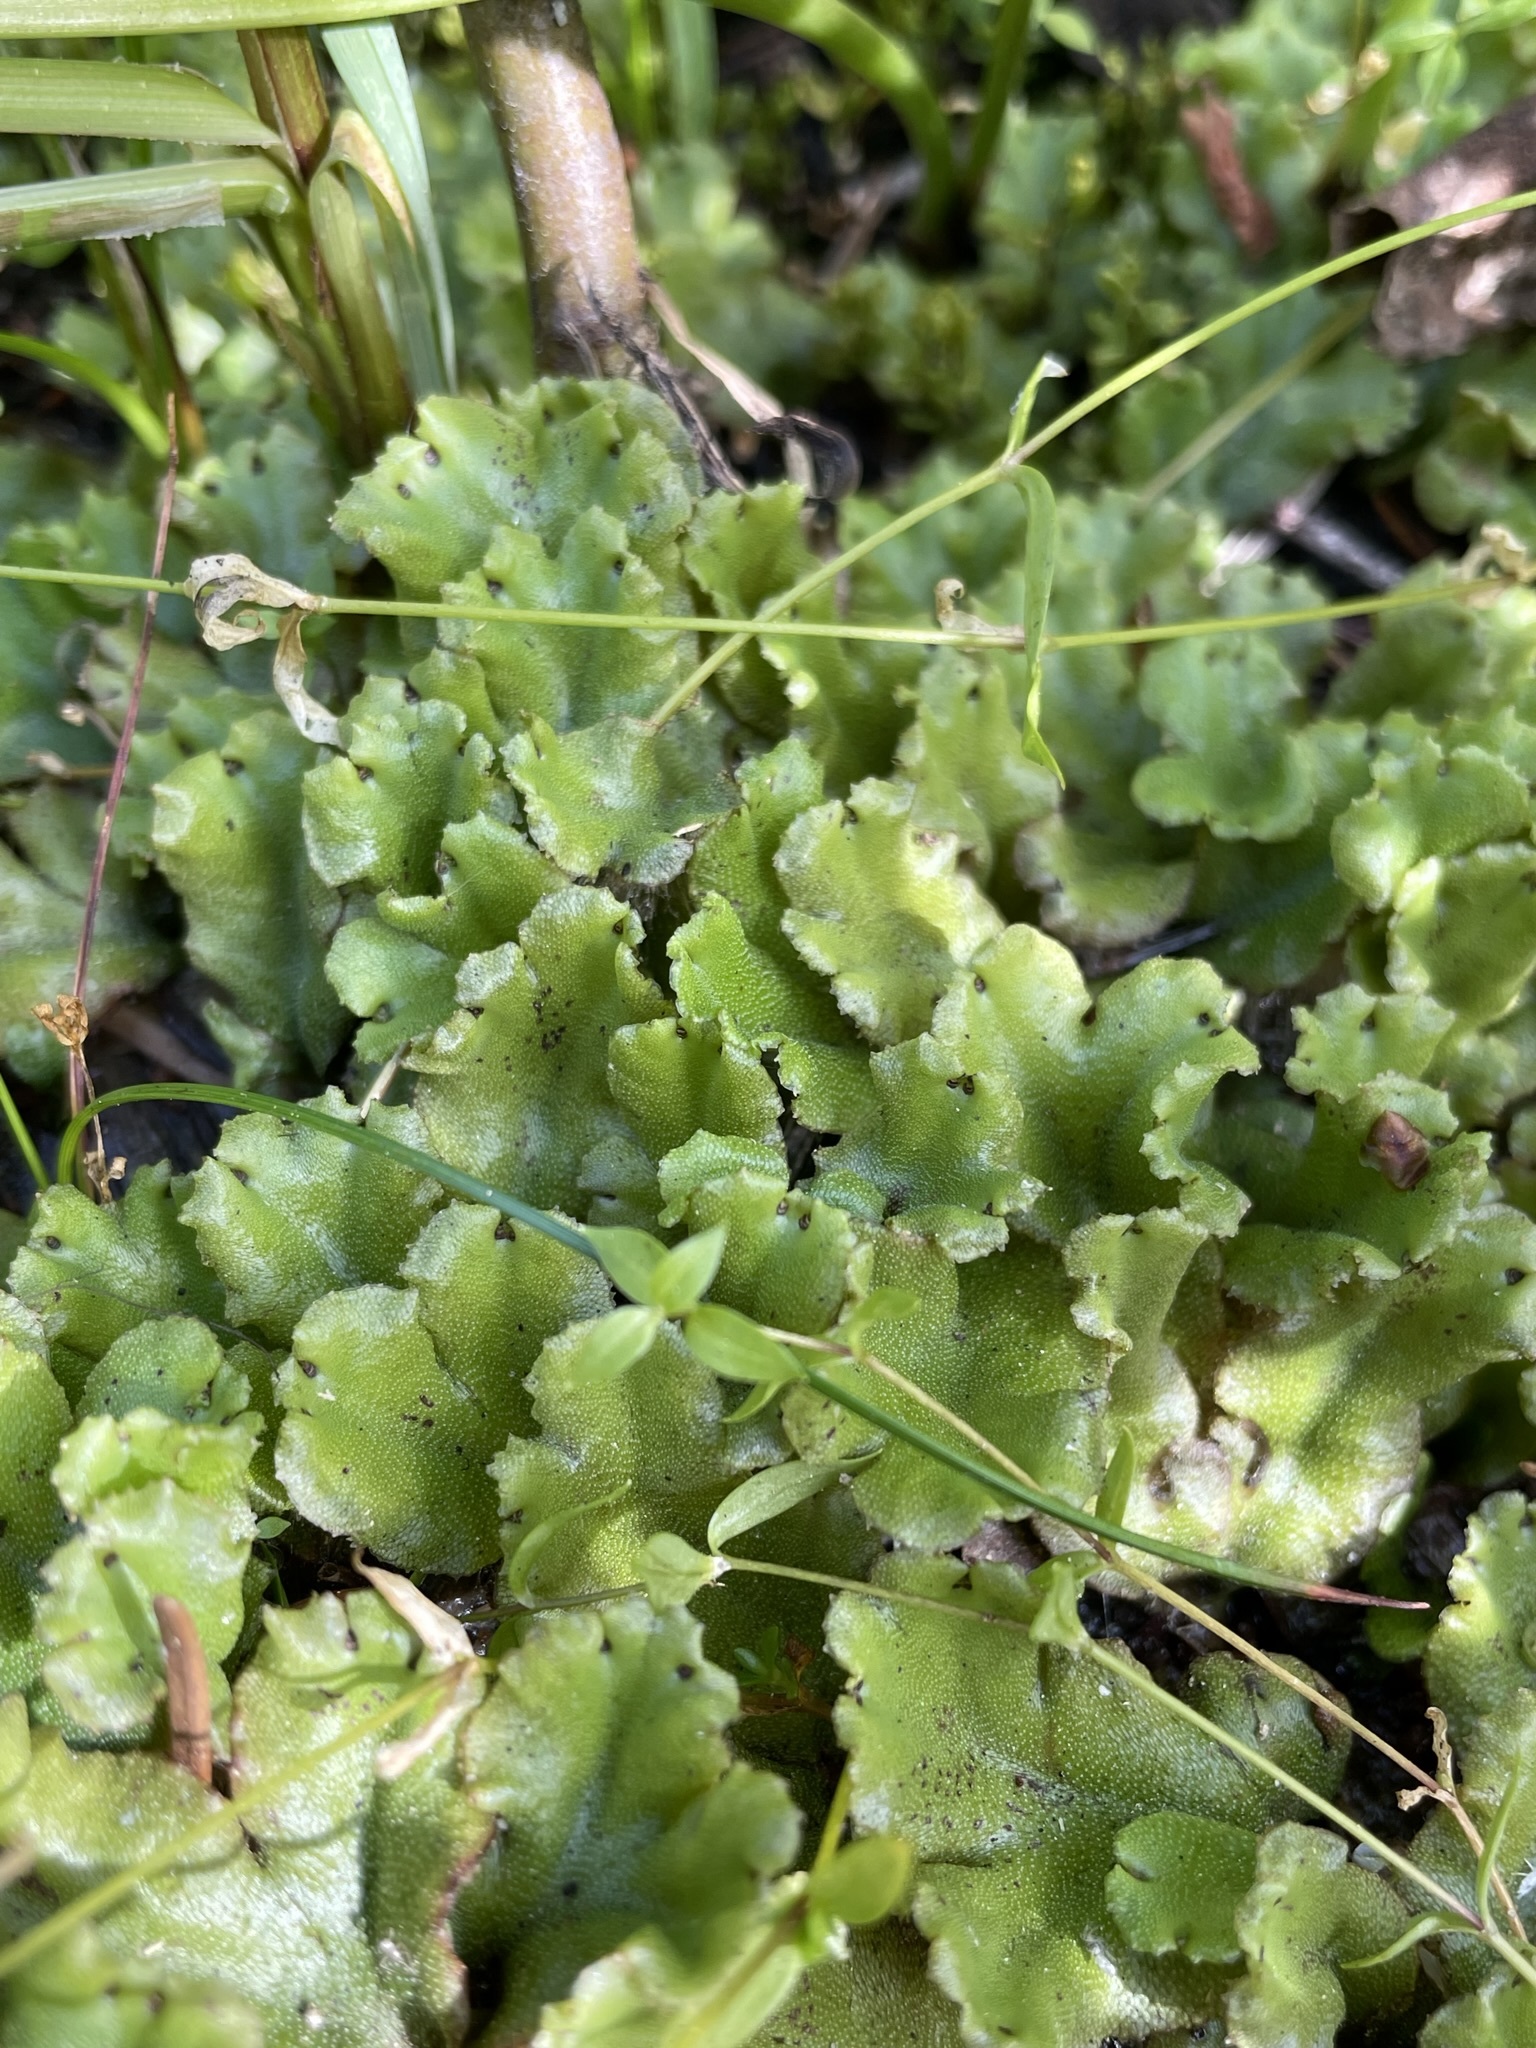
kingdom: Plantae
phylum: Marchantiophyta
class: Marchantiopsida
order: Marchantiales
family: Marchantiaceae
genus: Marchantia
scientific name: Marchantia polymorpha
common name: Common liverwort
